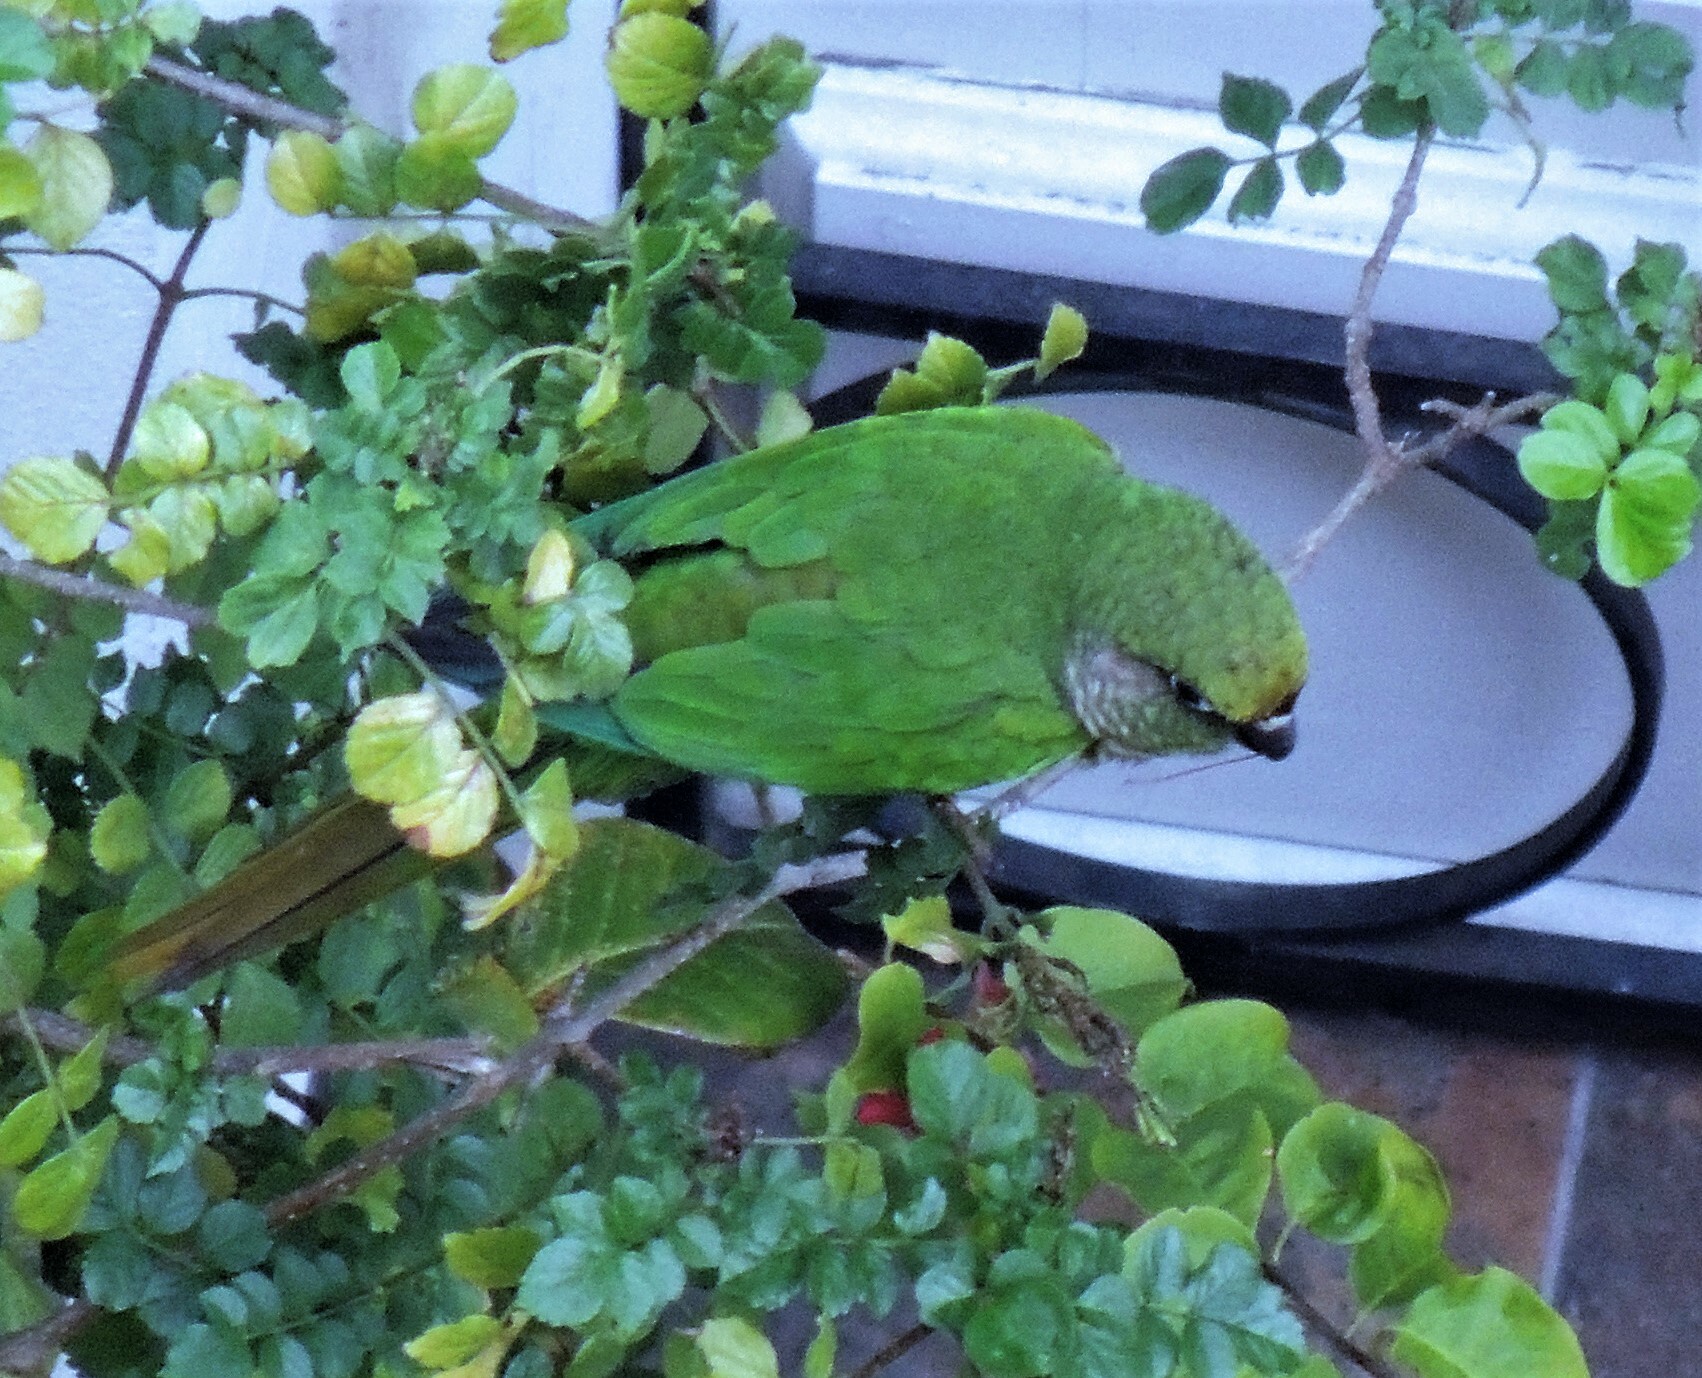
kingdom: Animalia
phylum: Chordata
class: Aves
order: Psittaciformes
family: Psittacidae
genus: Pyrrhura
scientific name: Pyrrhura frontalis
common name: Maroon-bellied parakeet
